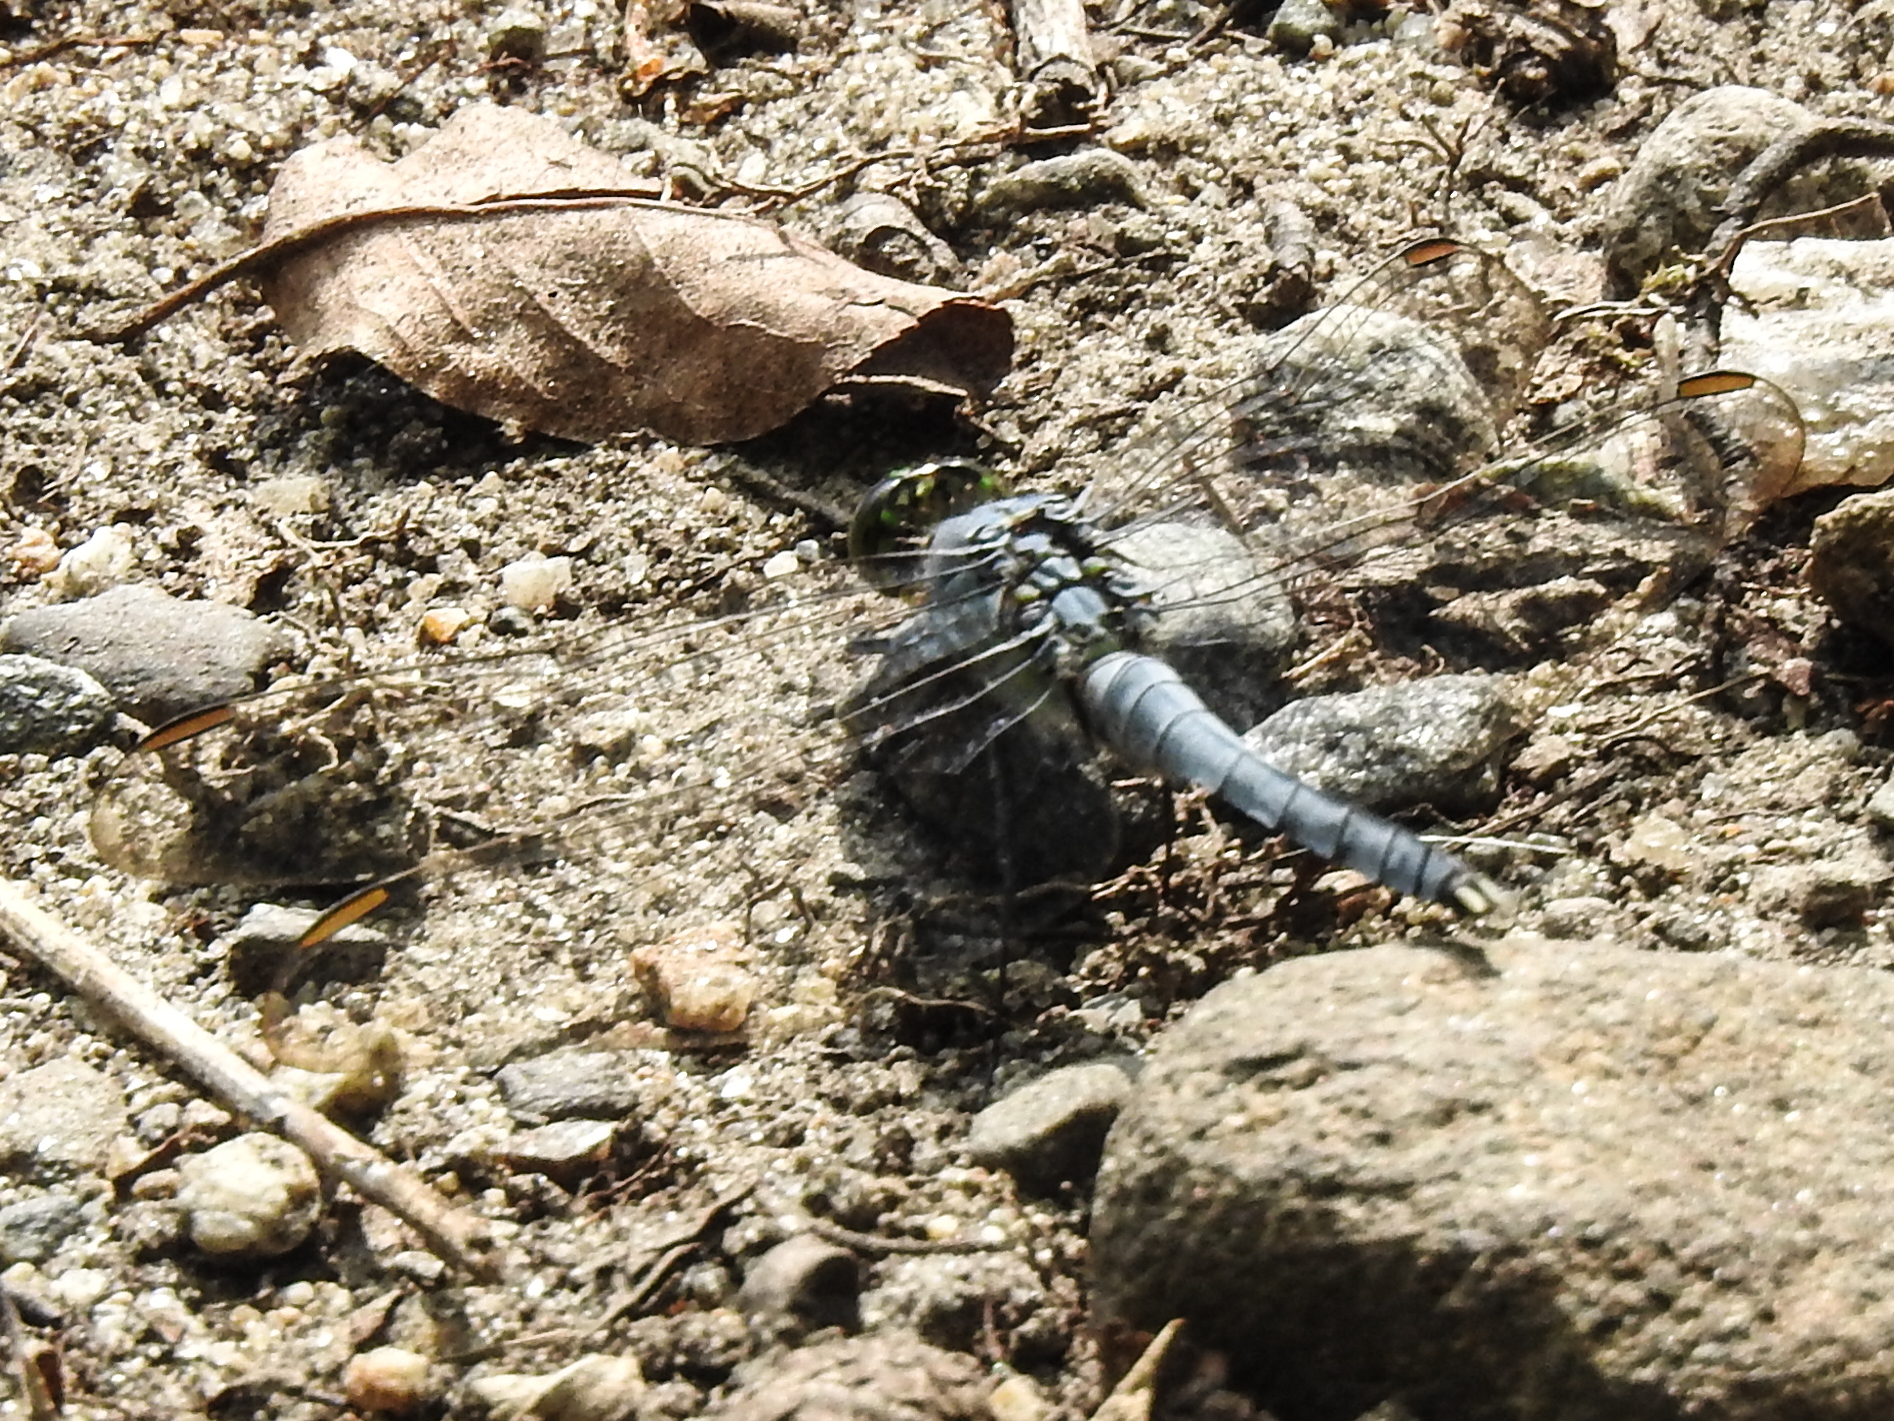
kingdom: Animalia
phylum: Arthropoda
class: Insecta
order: Odonata
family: Libellulidae
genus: Erythemis
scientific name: Erythemis simplicicollis
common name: Eastern pondhawk
